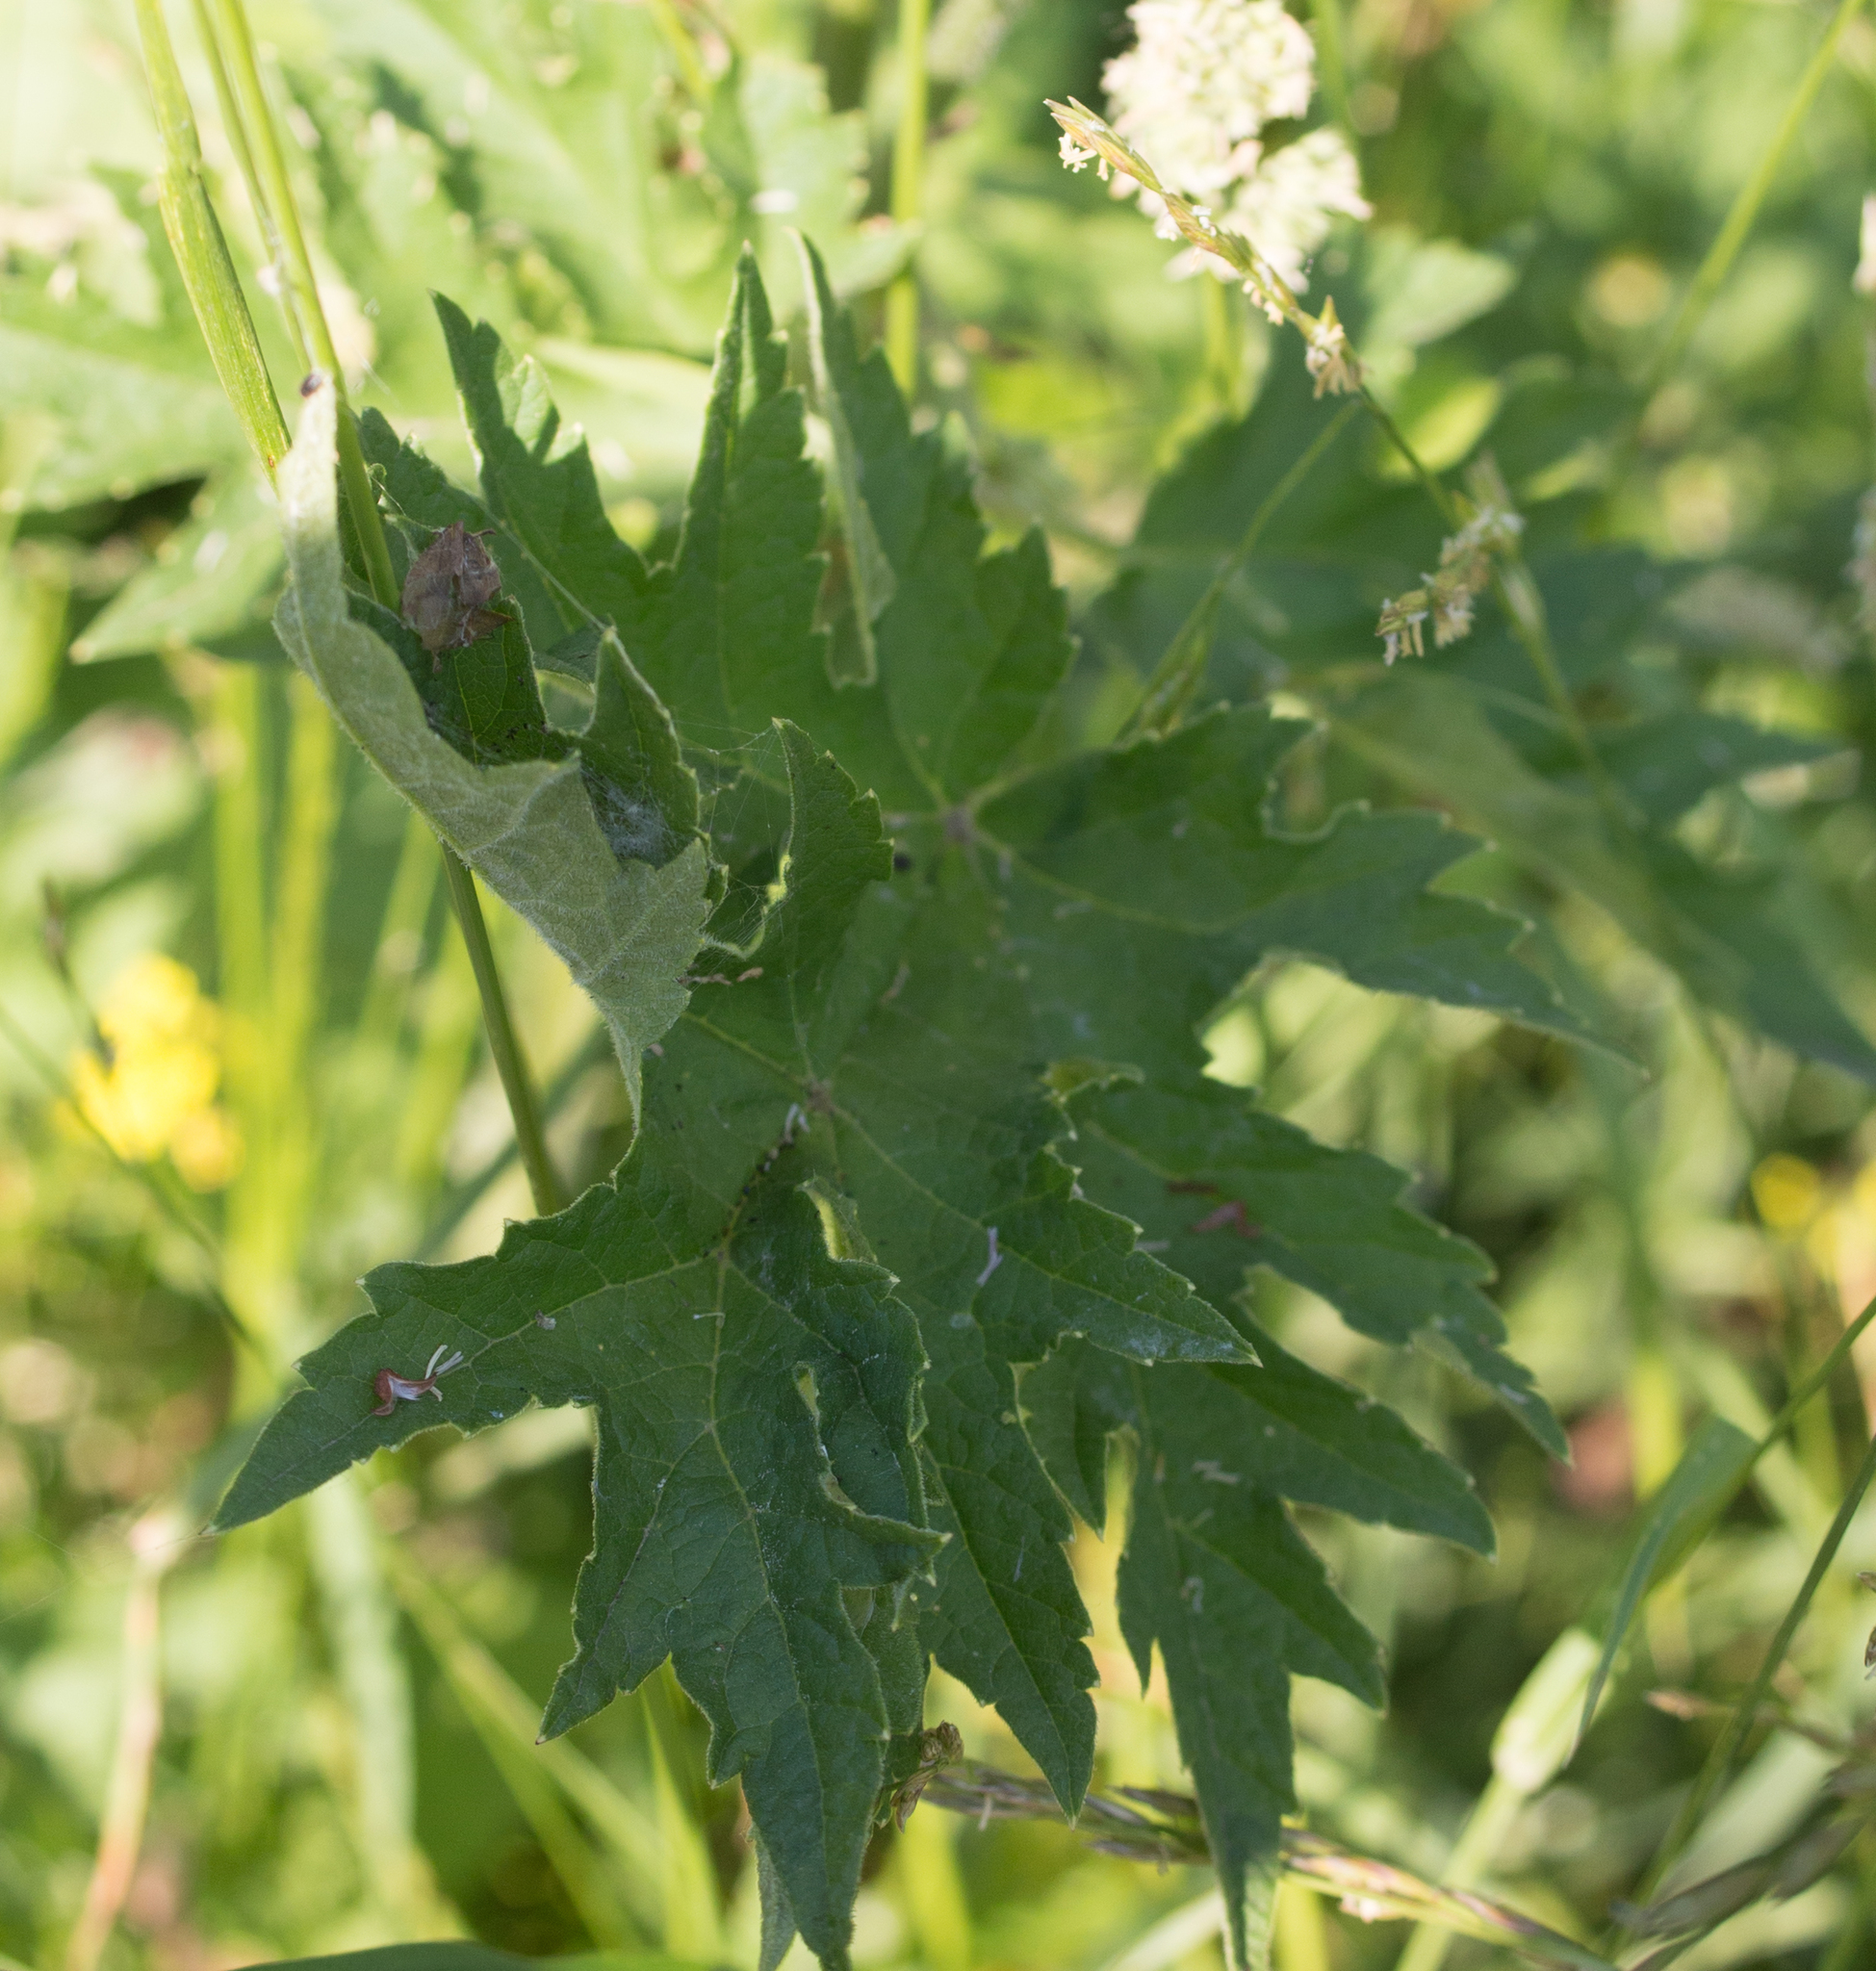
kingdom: Plantae
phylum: Tracheophyta
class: Magnoliopsida
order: Apiales
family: Apiaceae
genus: Heracleum
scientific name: Heracleum sphondylium
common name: Hogweed
